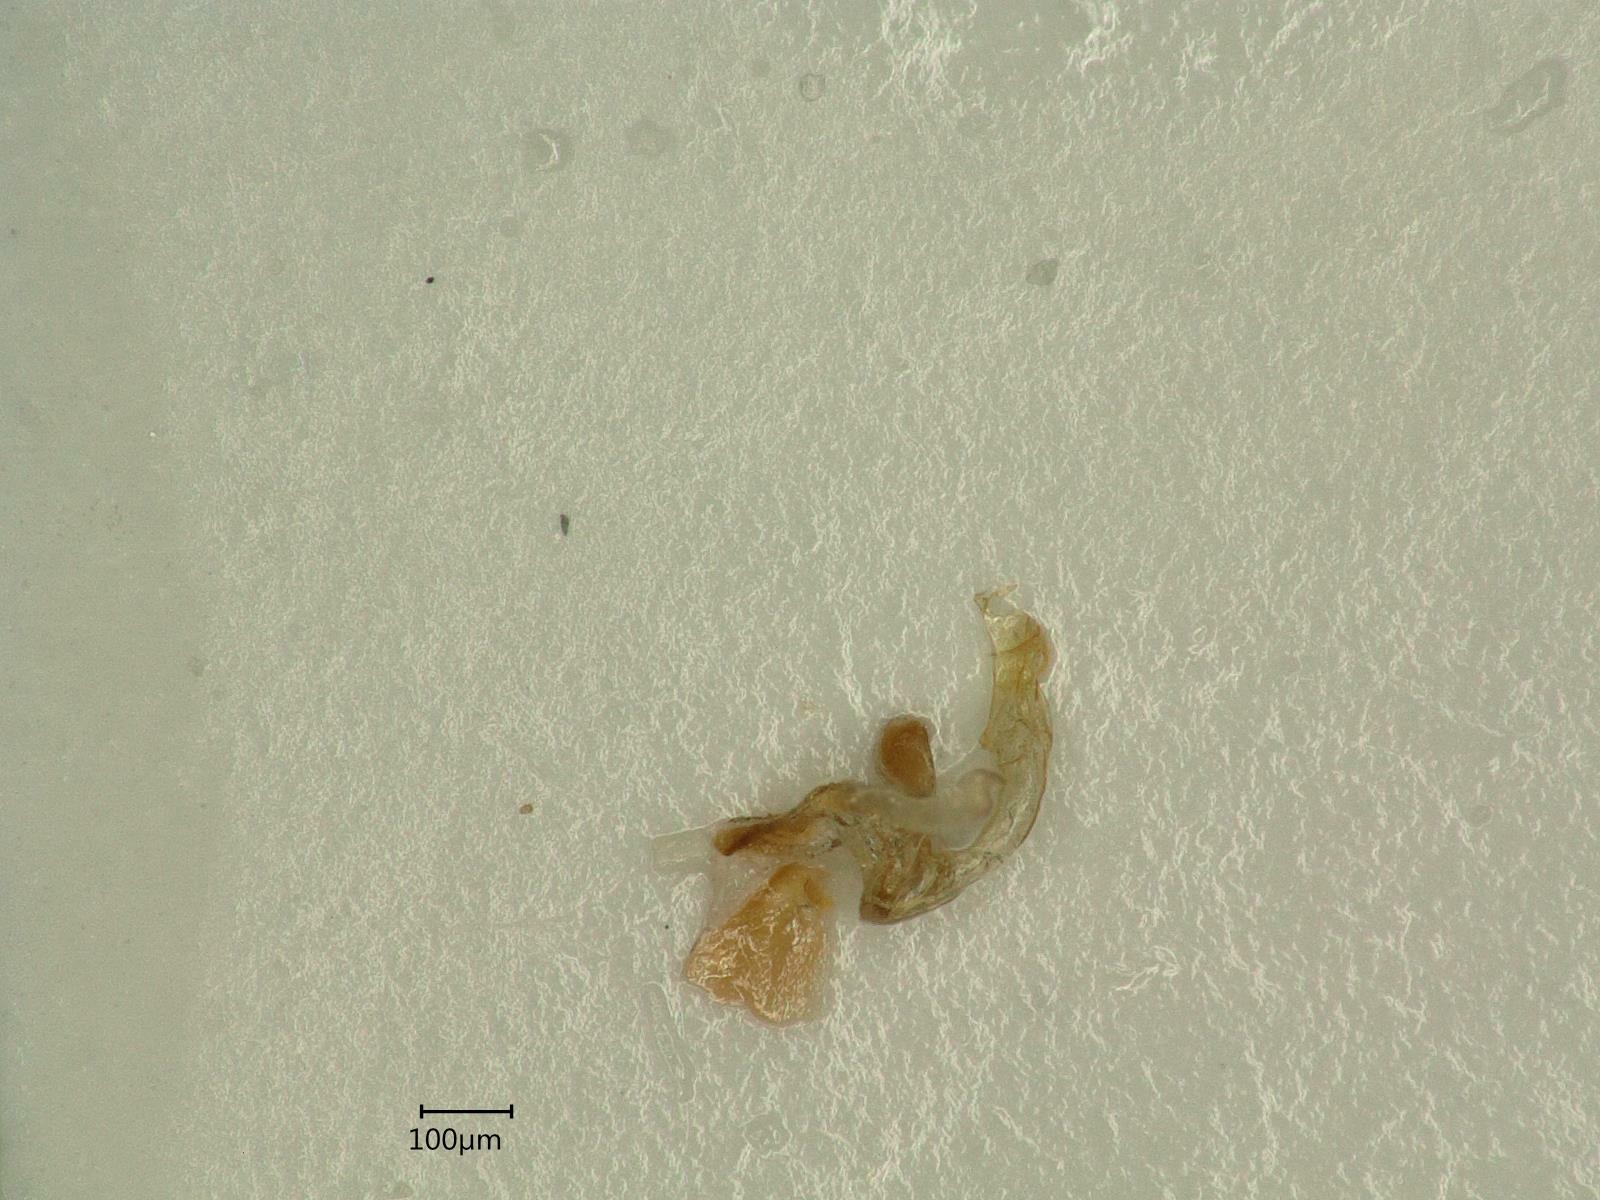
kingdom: Animalia
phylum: Arthropoda
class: Insecta
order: Hemiptera
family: Cicadellidae
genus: Dikraneura
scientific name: Dikraneura variata
